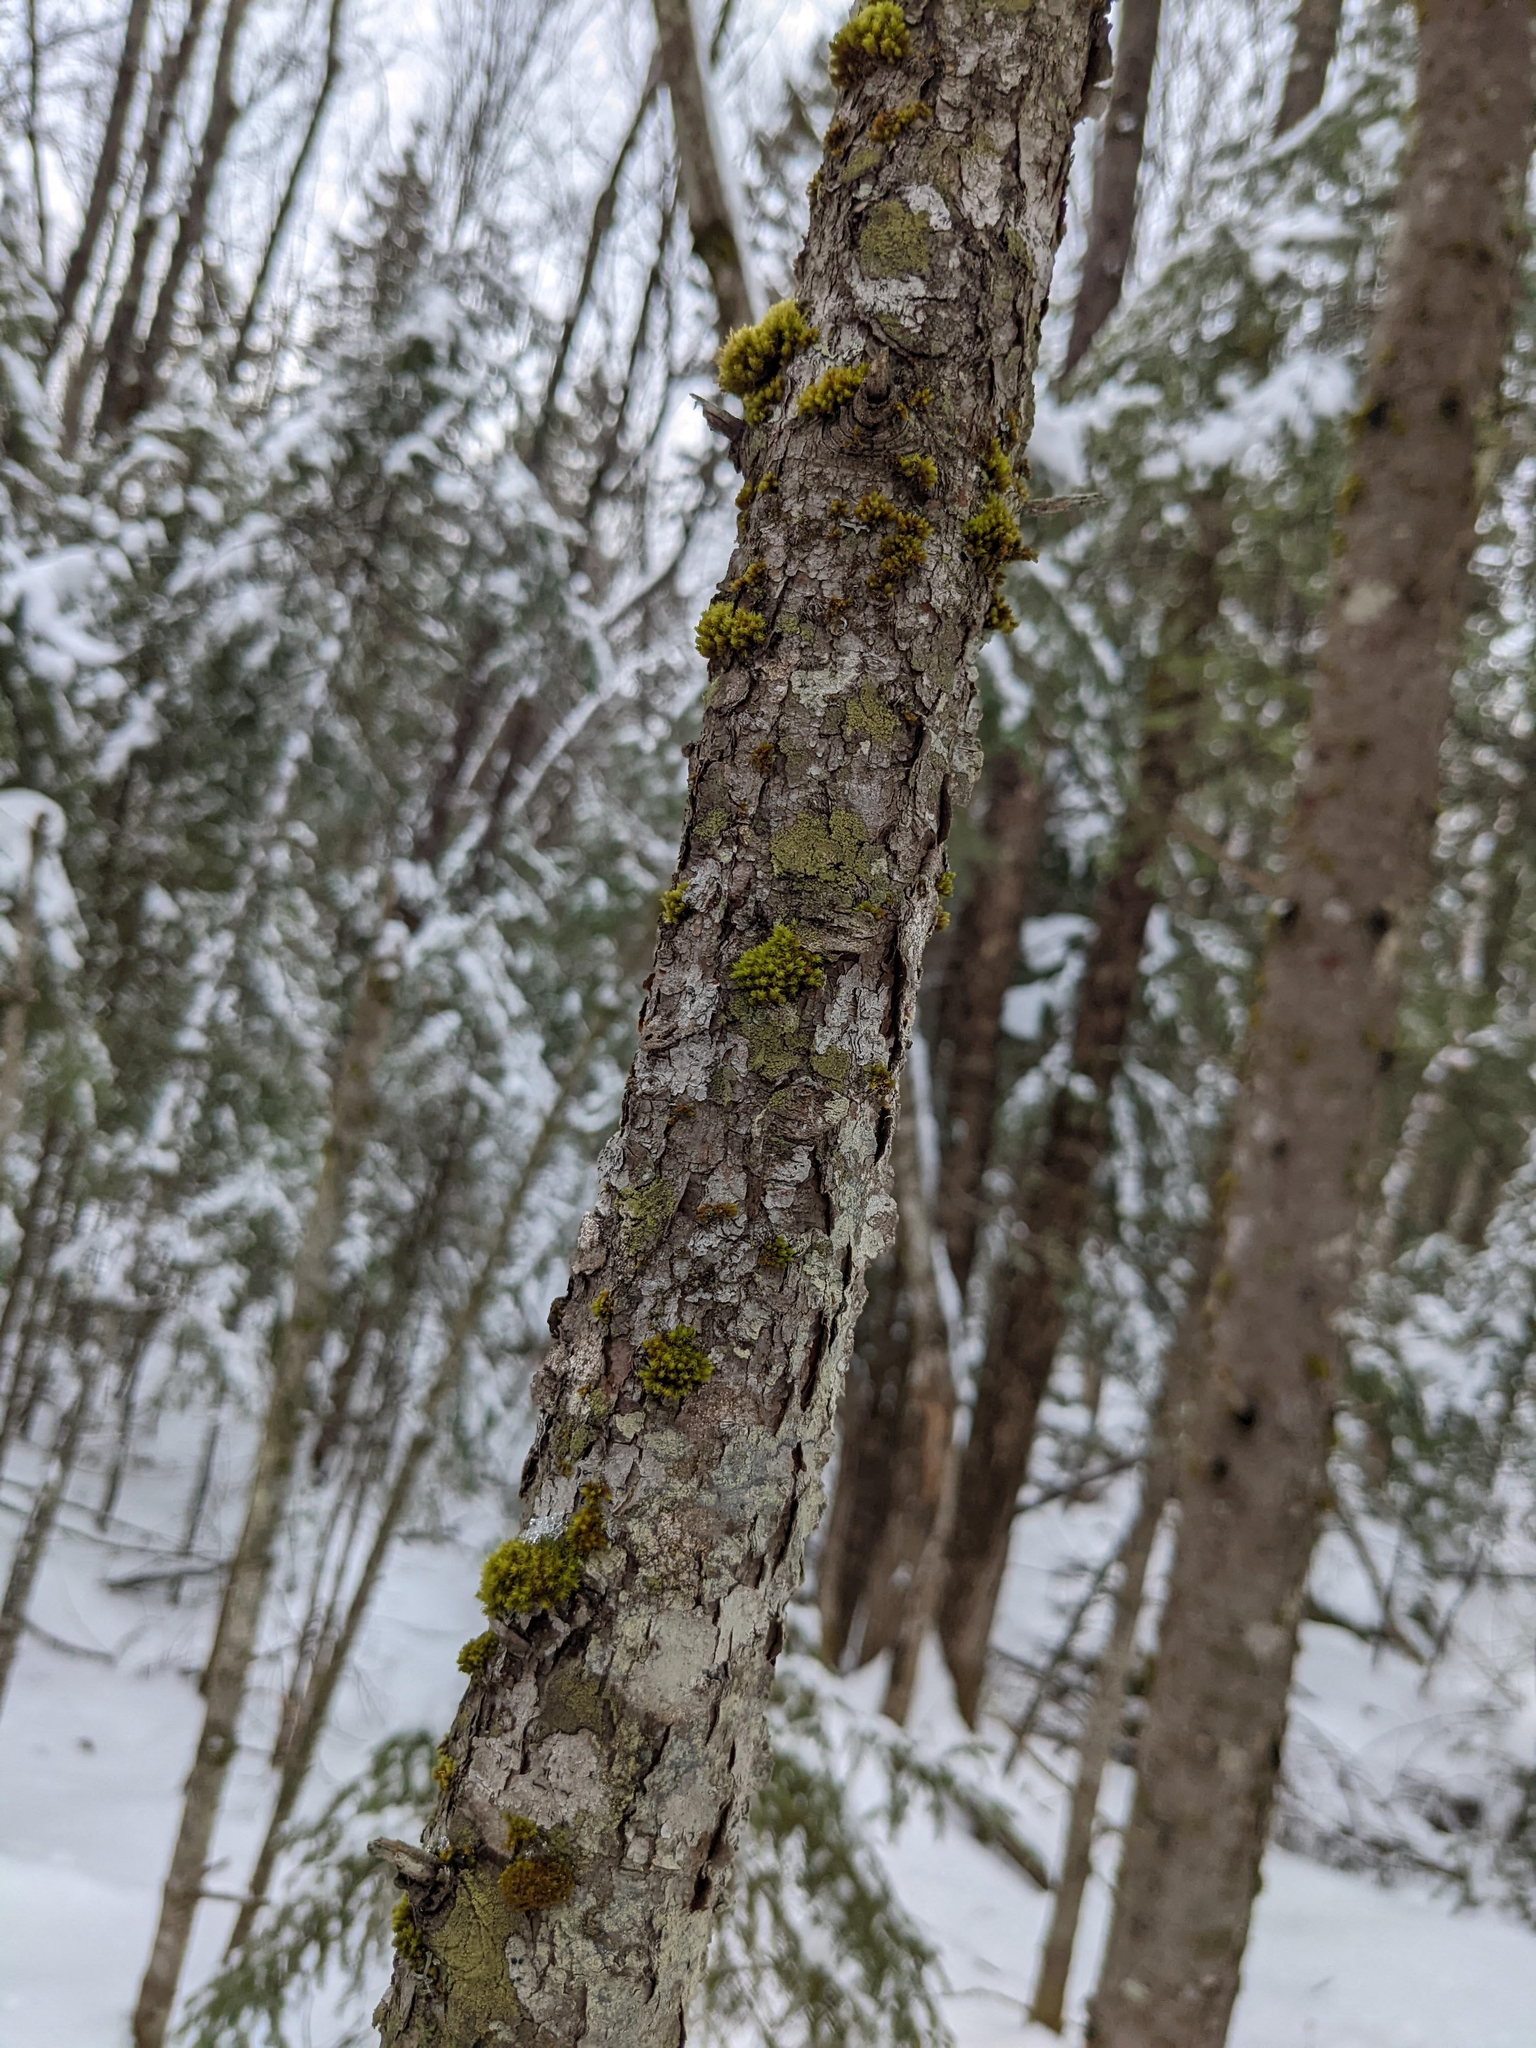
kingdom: Plantae
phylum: Bryophyta
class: Bryopsida
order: Orthotrichales
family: Orthotrichaceae
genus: Ulota
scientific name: Ulota crispa
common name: Crisped pincushion moss
